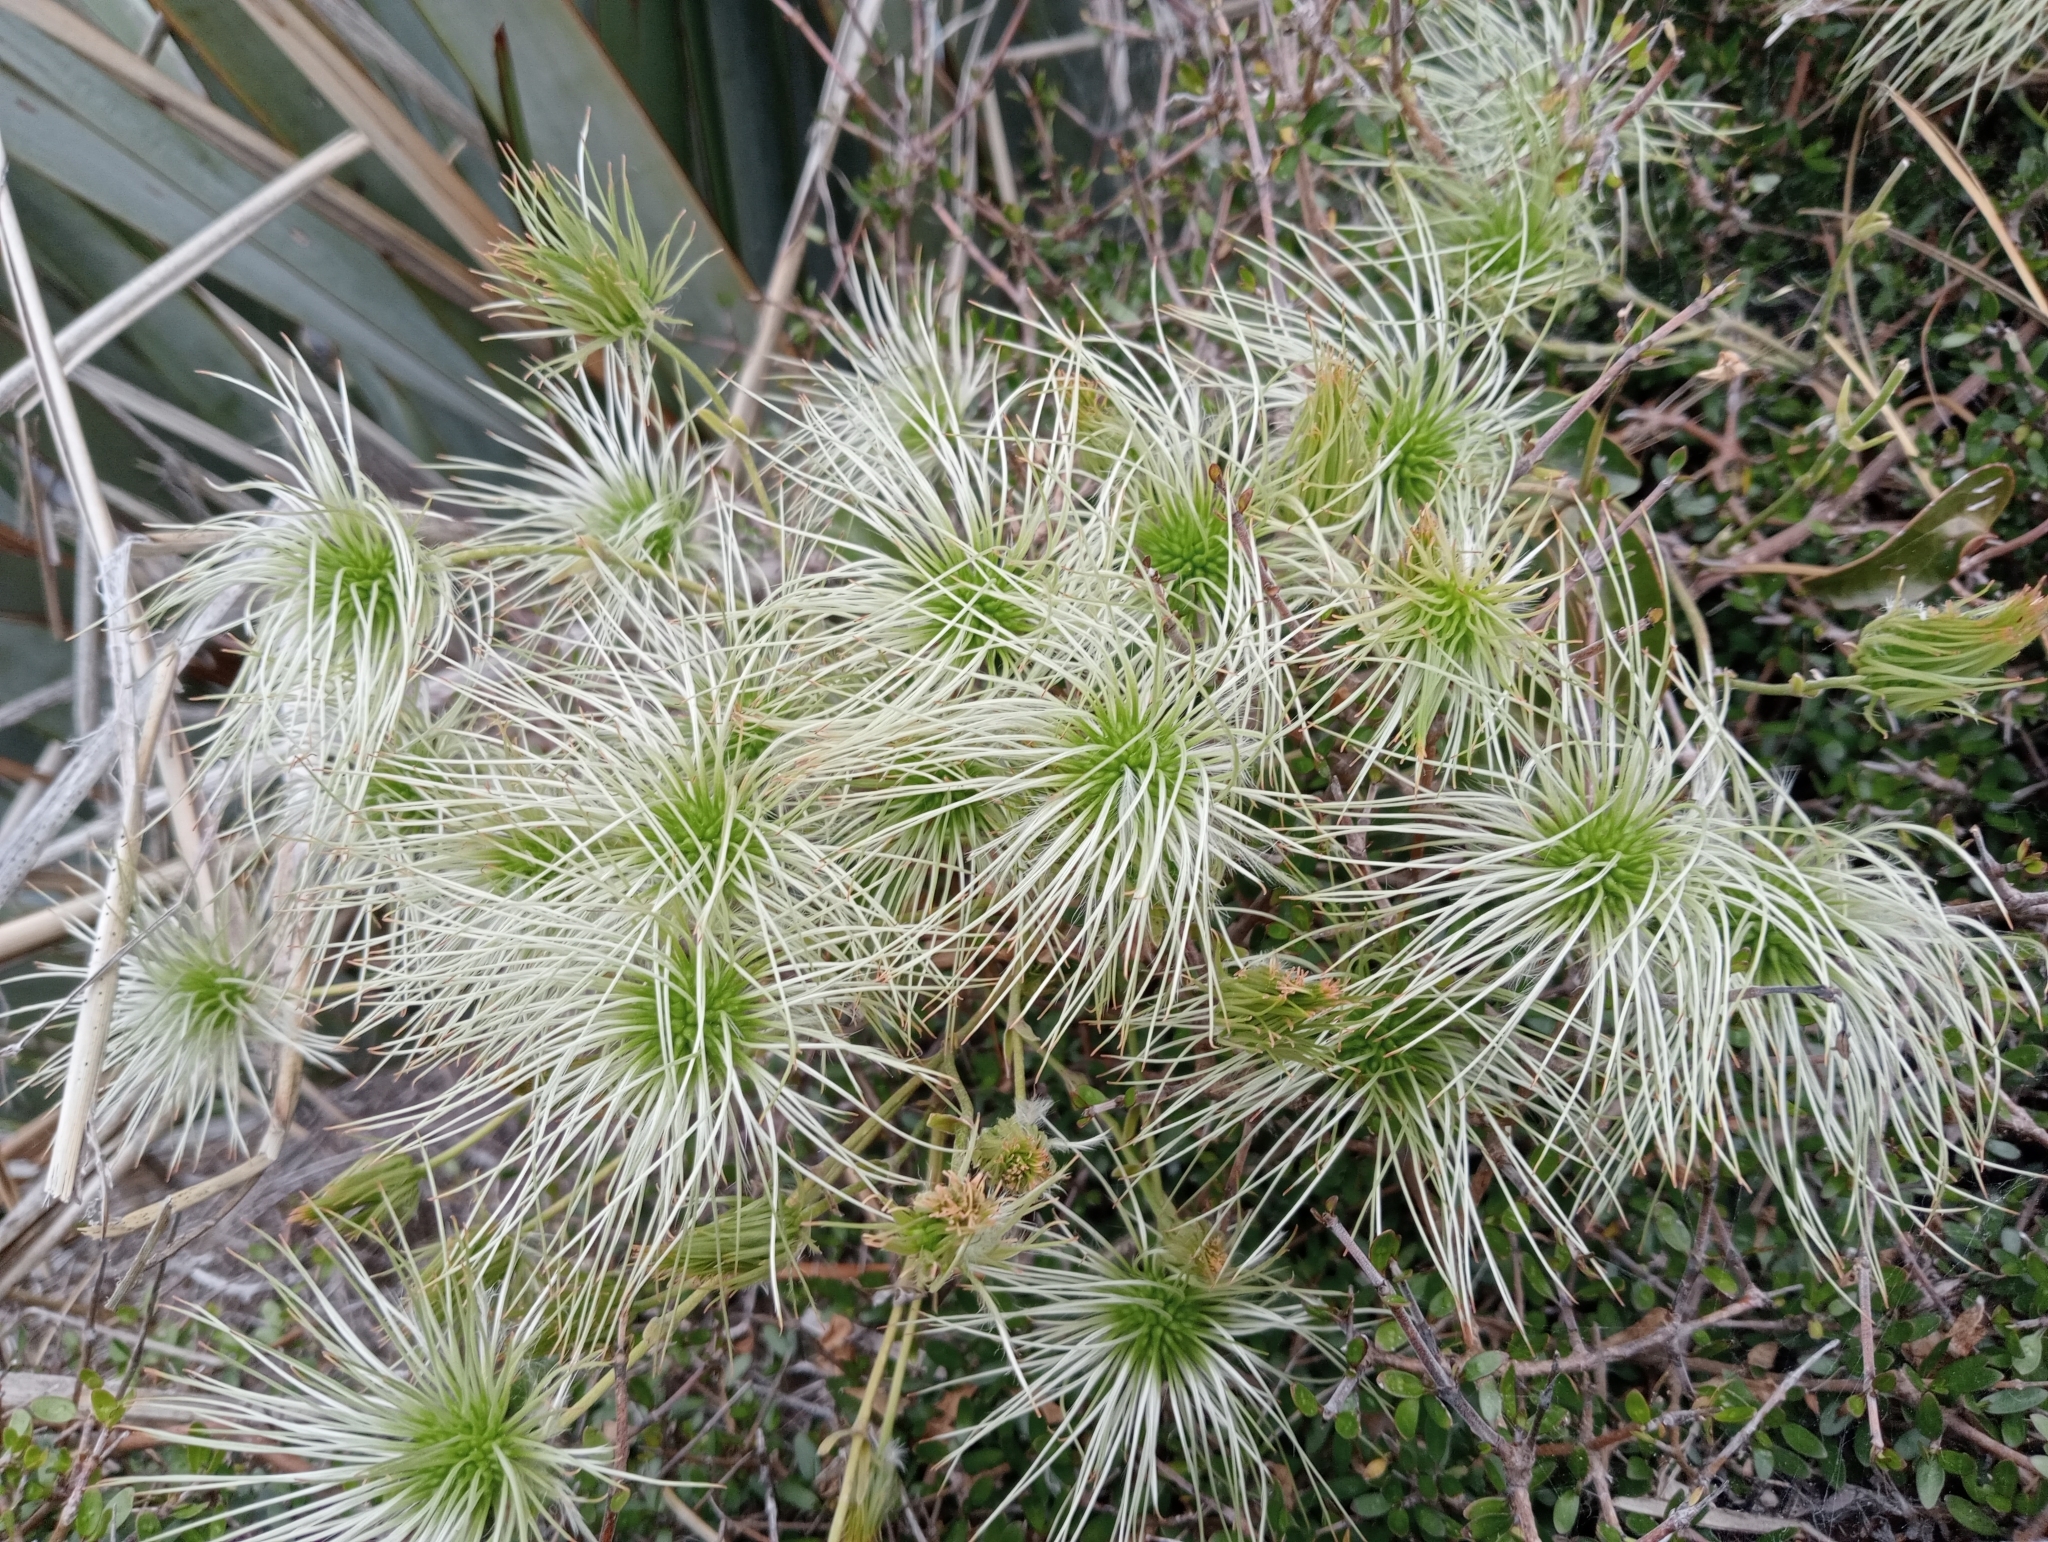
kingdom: Plantae
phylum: Tracheophyta
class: Magnoliopsida
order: Ranunculales
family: Ranunculaceae
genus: Clematis
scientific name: Clematis paniculata
